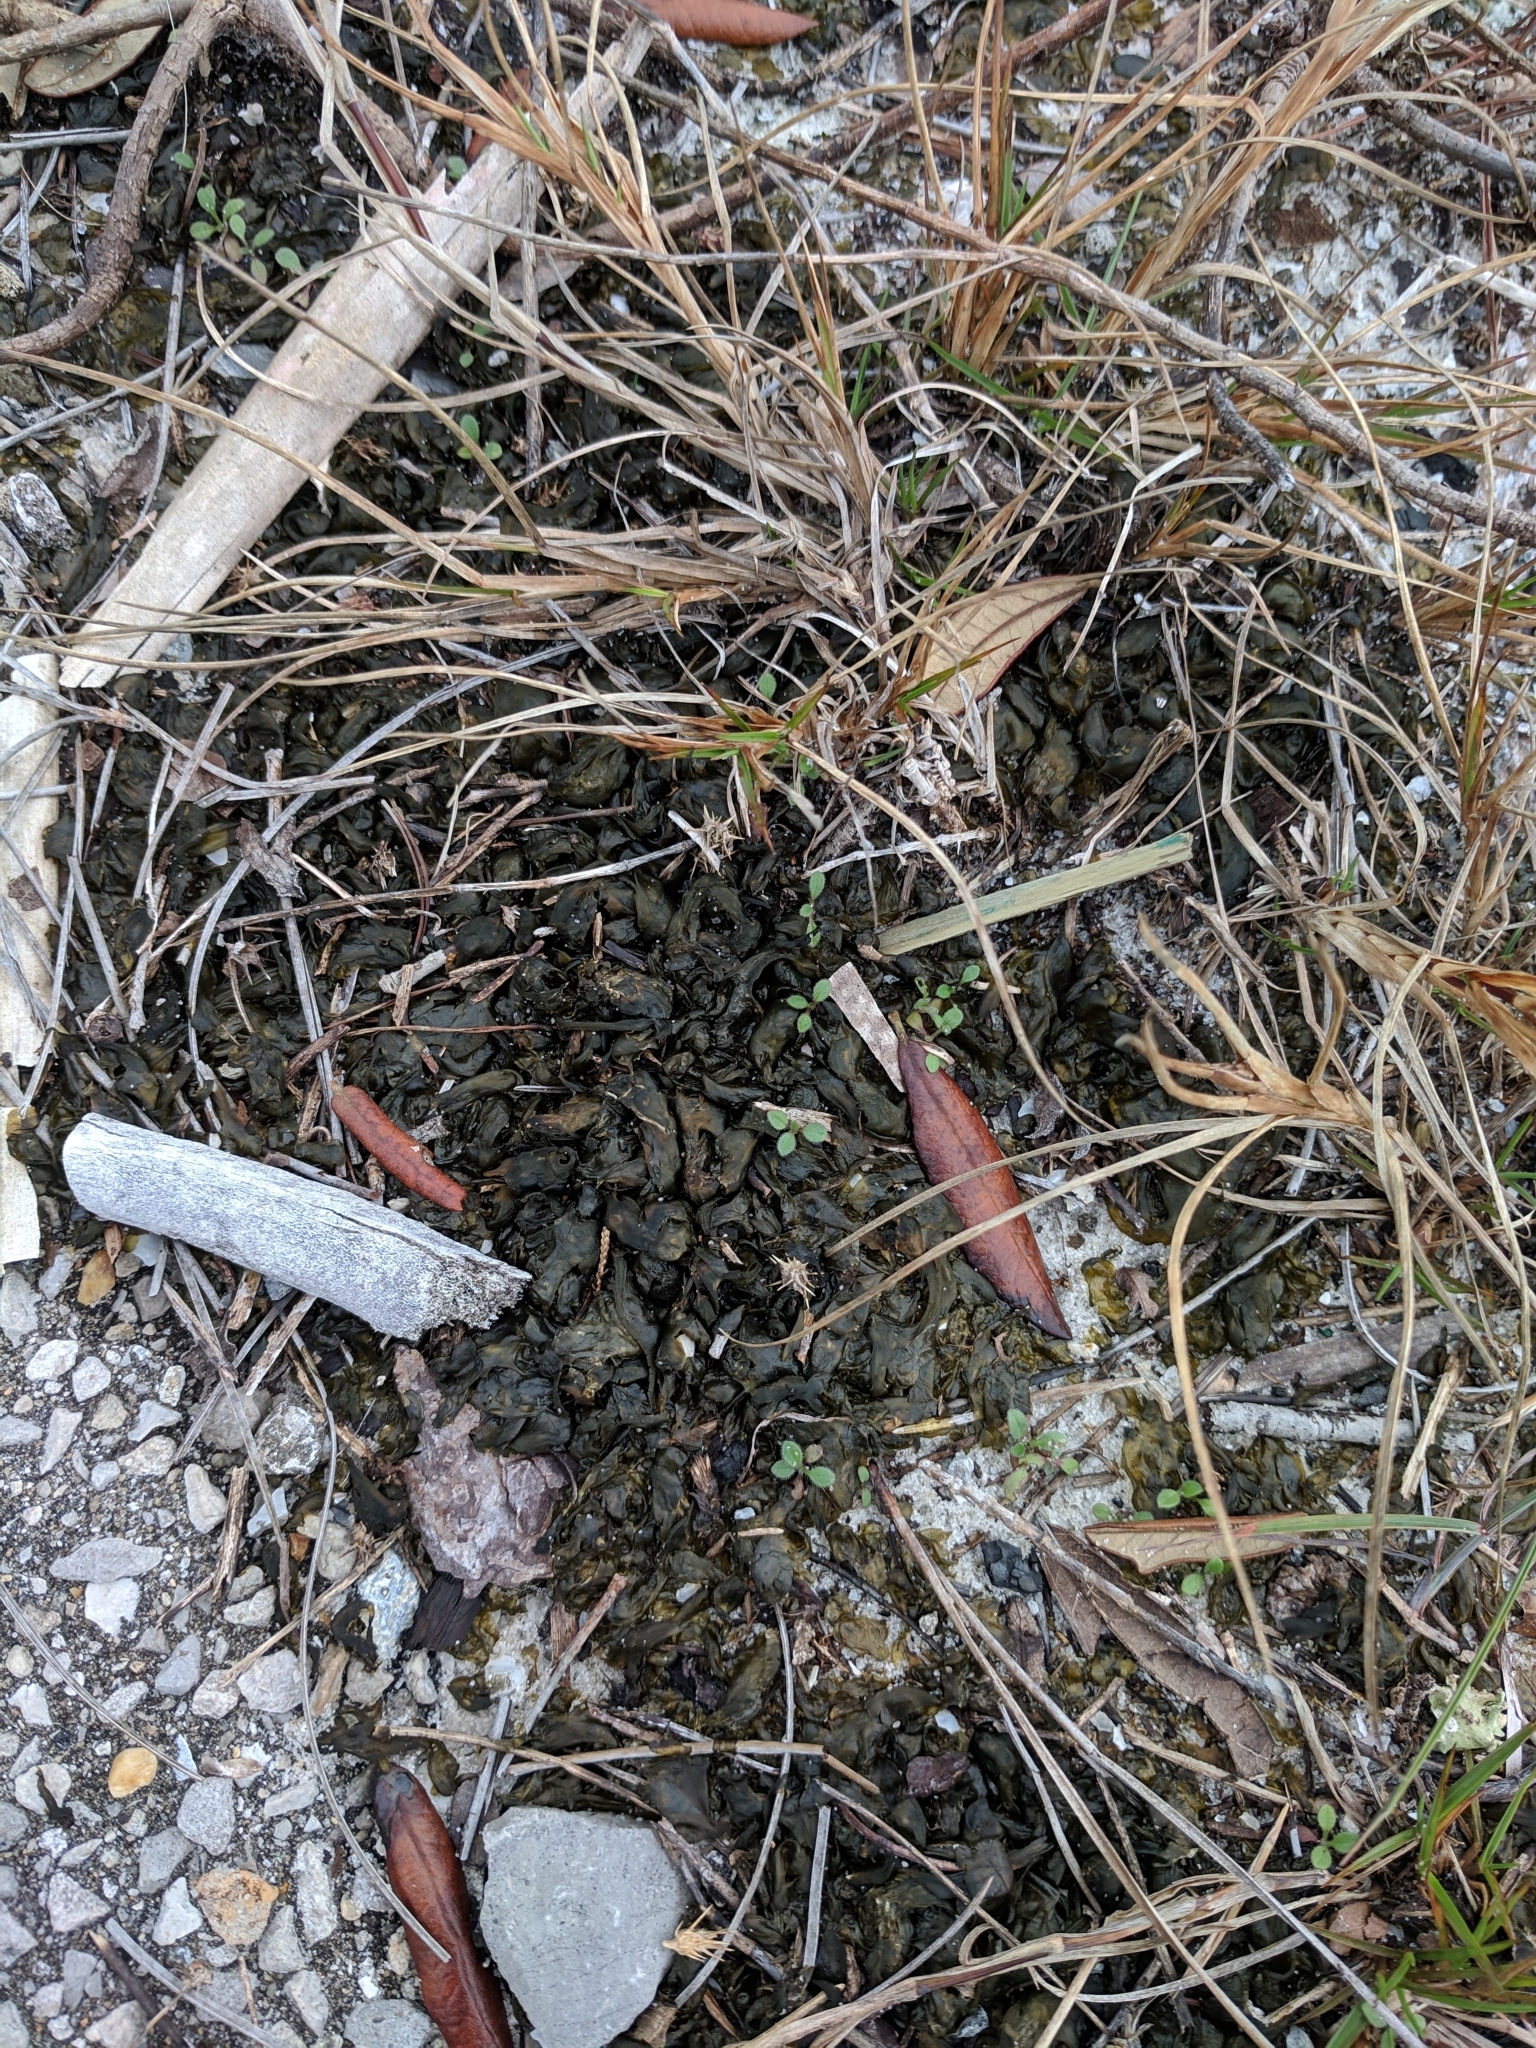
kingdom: Bacteria
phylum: Cyanobacteria
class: Cyanobacteriia
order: Cyanobacteriales
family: Nostocaceae
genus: Nostoc
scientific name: Nostoc commune
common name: Star jelly
